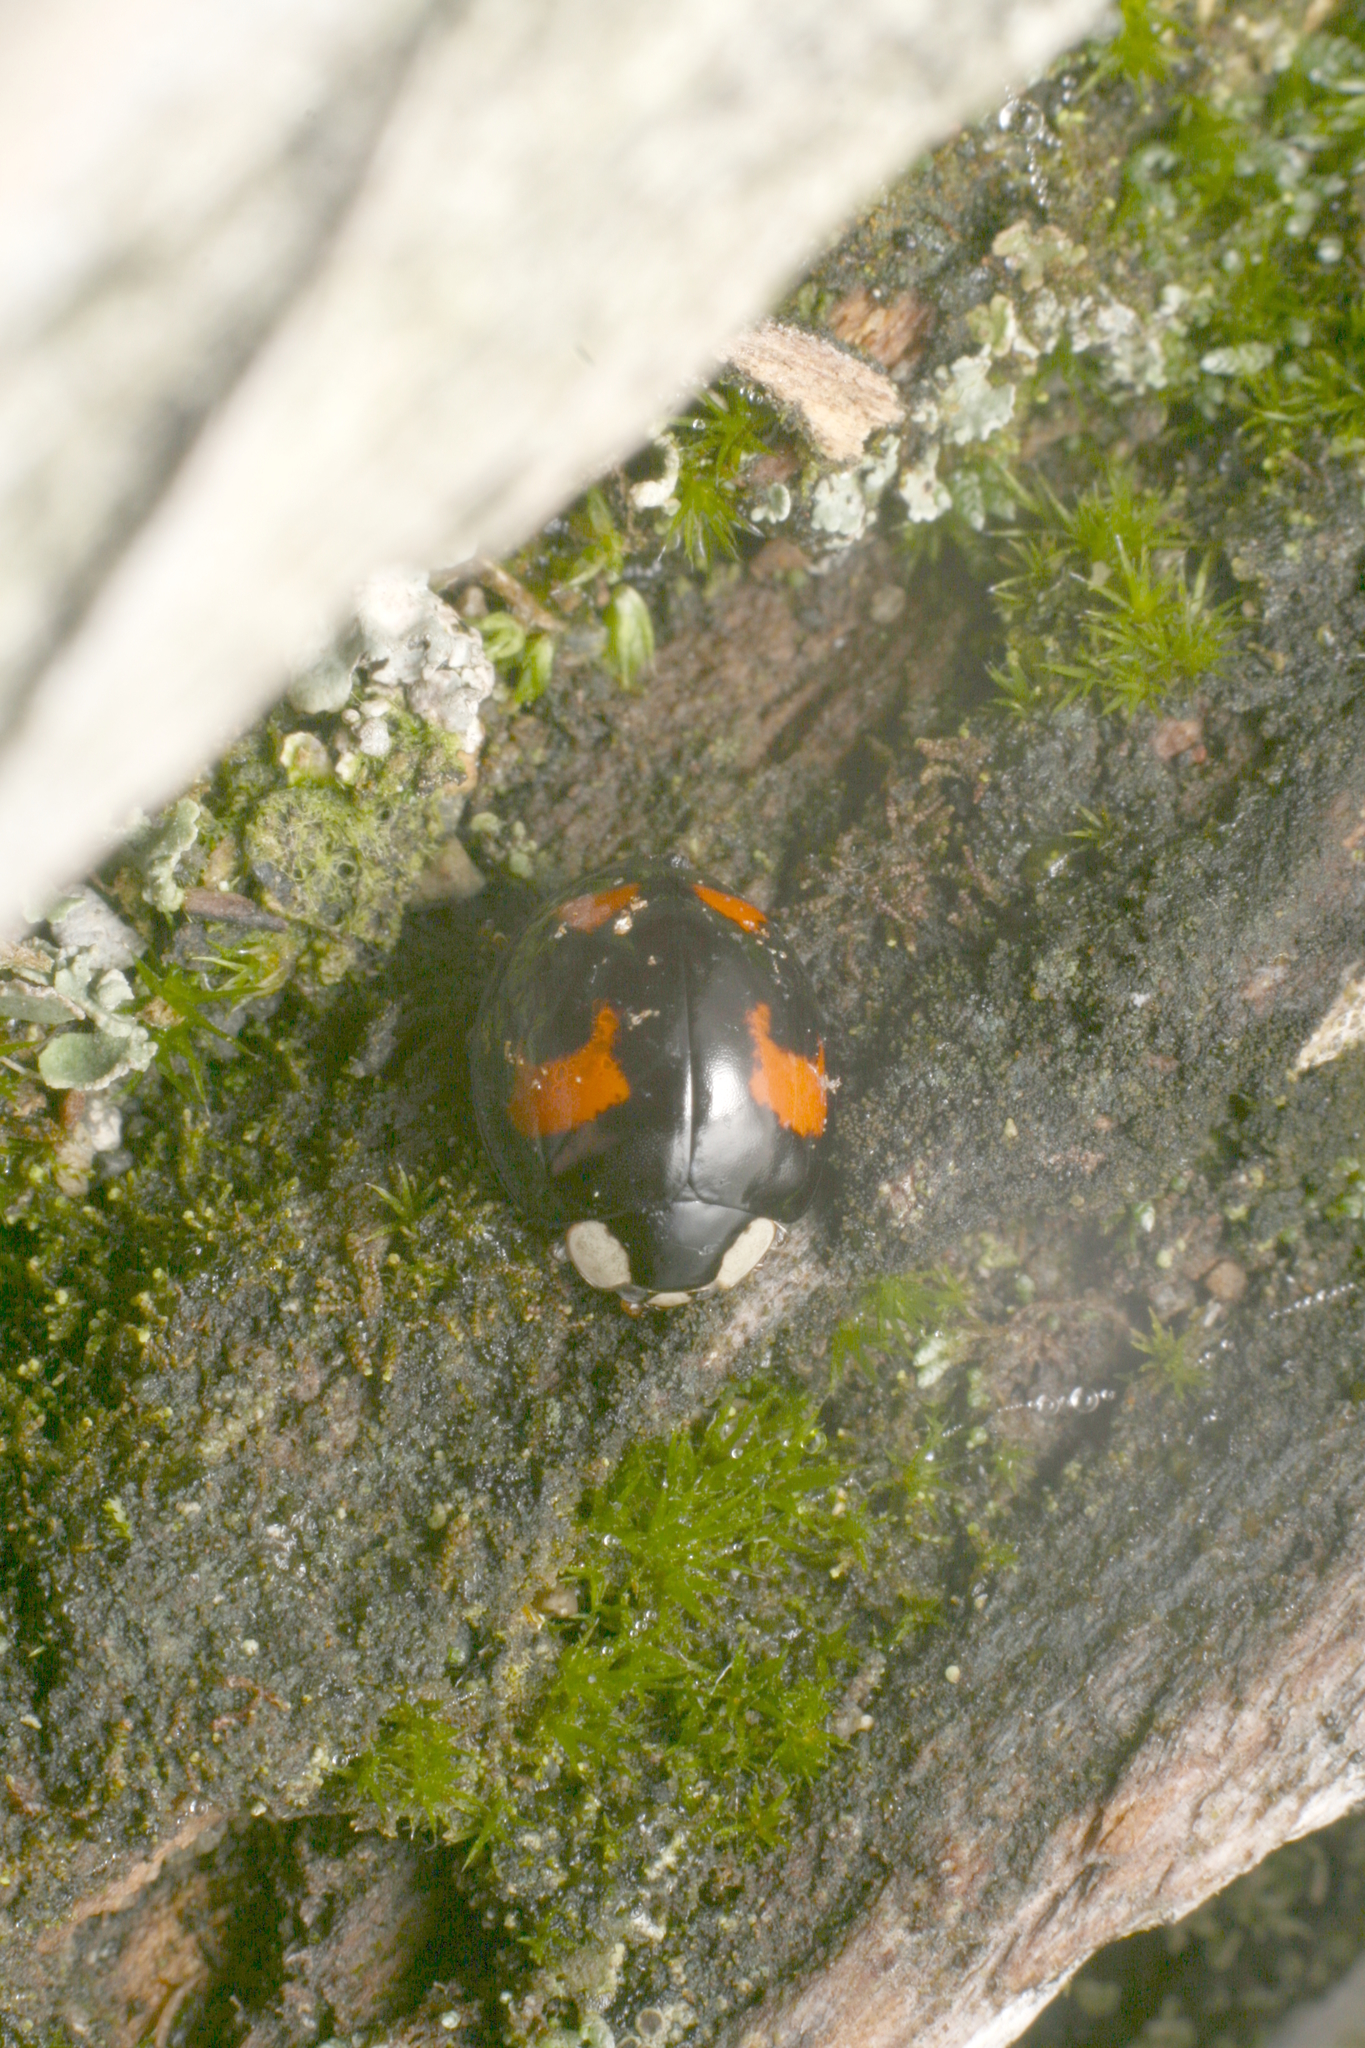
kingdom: Animalia
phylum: Arthropoda
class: Insecta
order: Coleoptera
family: Coccinellidae
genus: Harmonia
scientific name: Harmonia axyridis
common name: Harlequin ladybird
